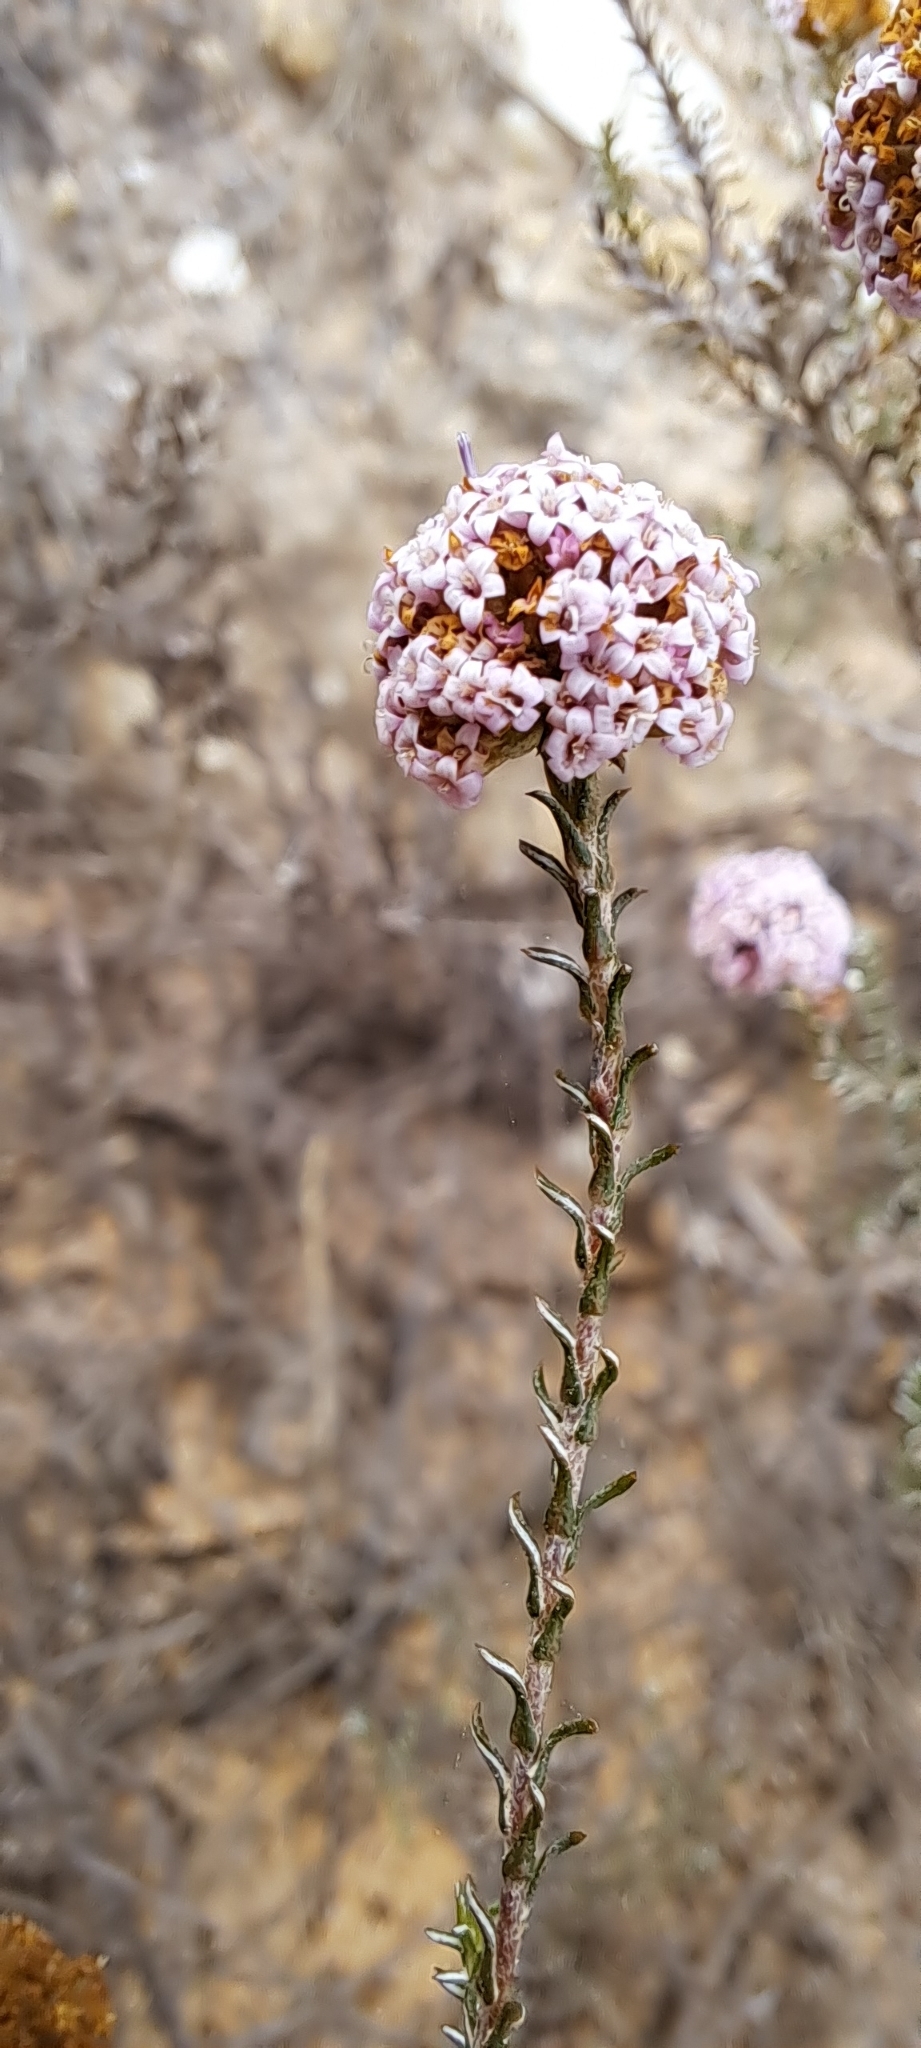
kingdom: Plantae
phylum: Tracheophyta
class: Magnoliopsida
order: Asterales
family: Asteraceae
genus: Stoebe
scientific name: Stoebe capitata
